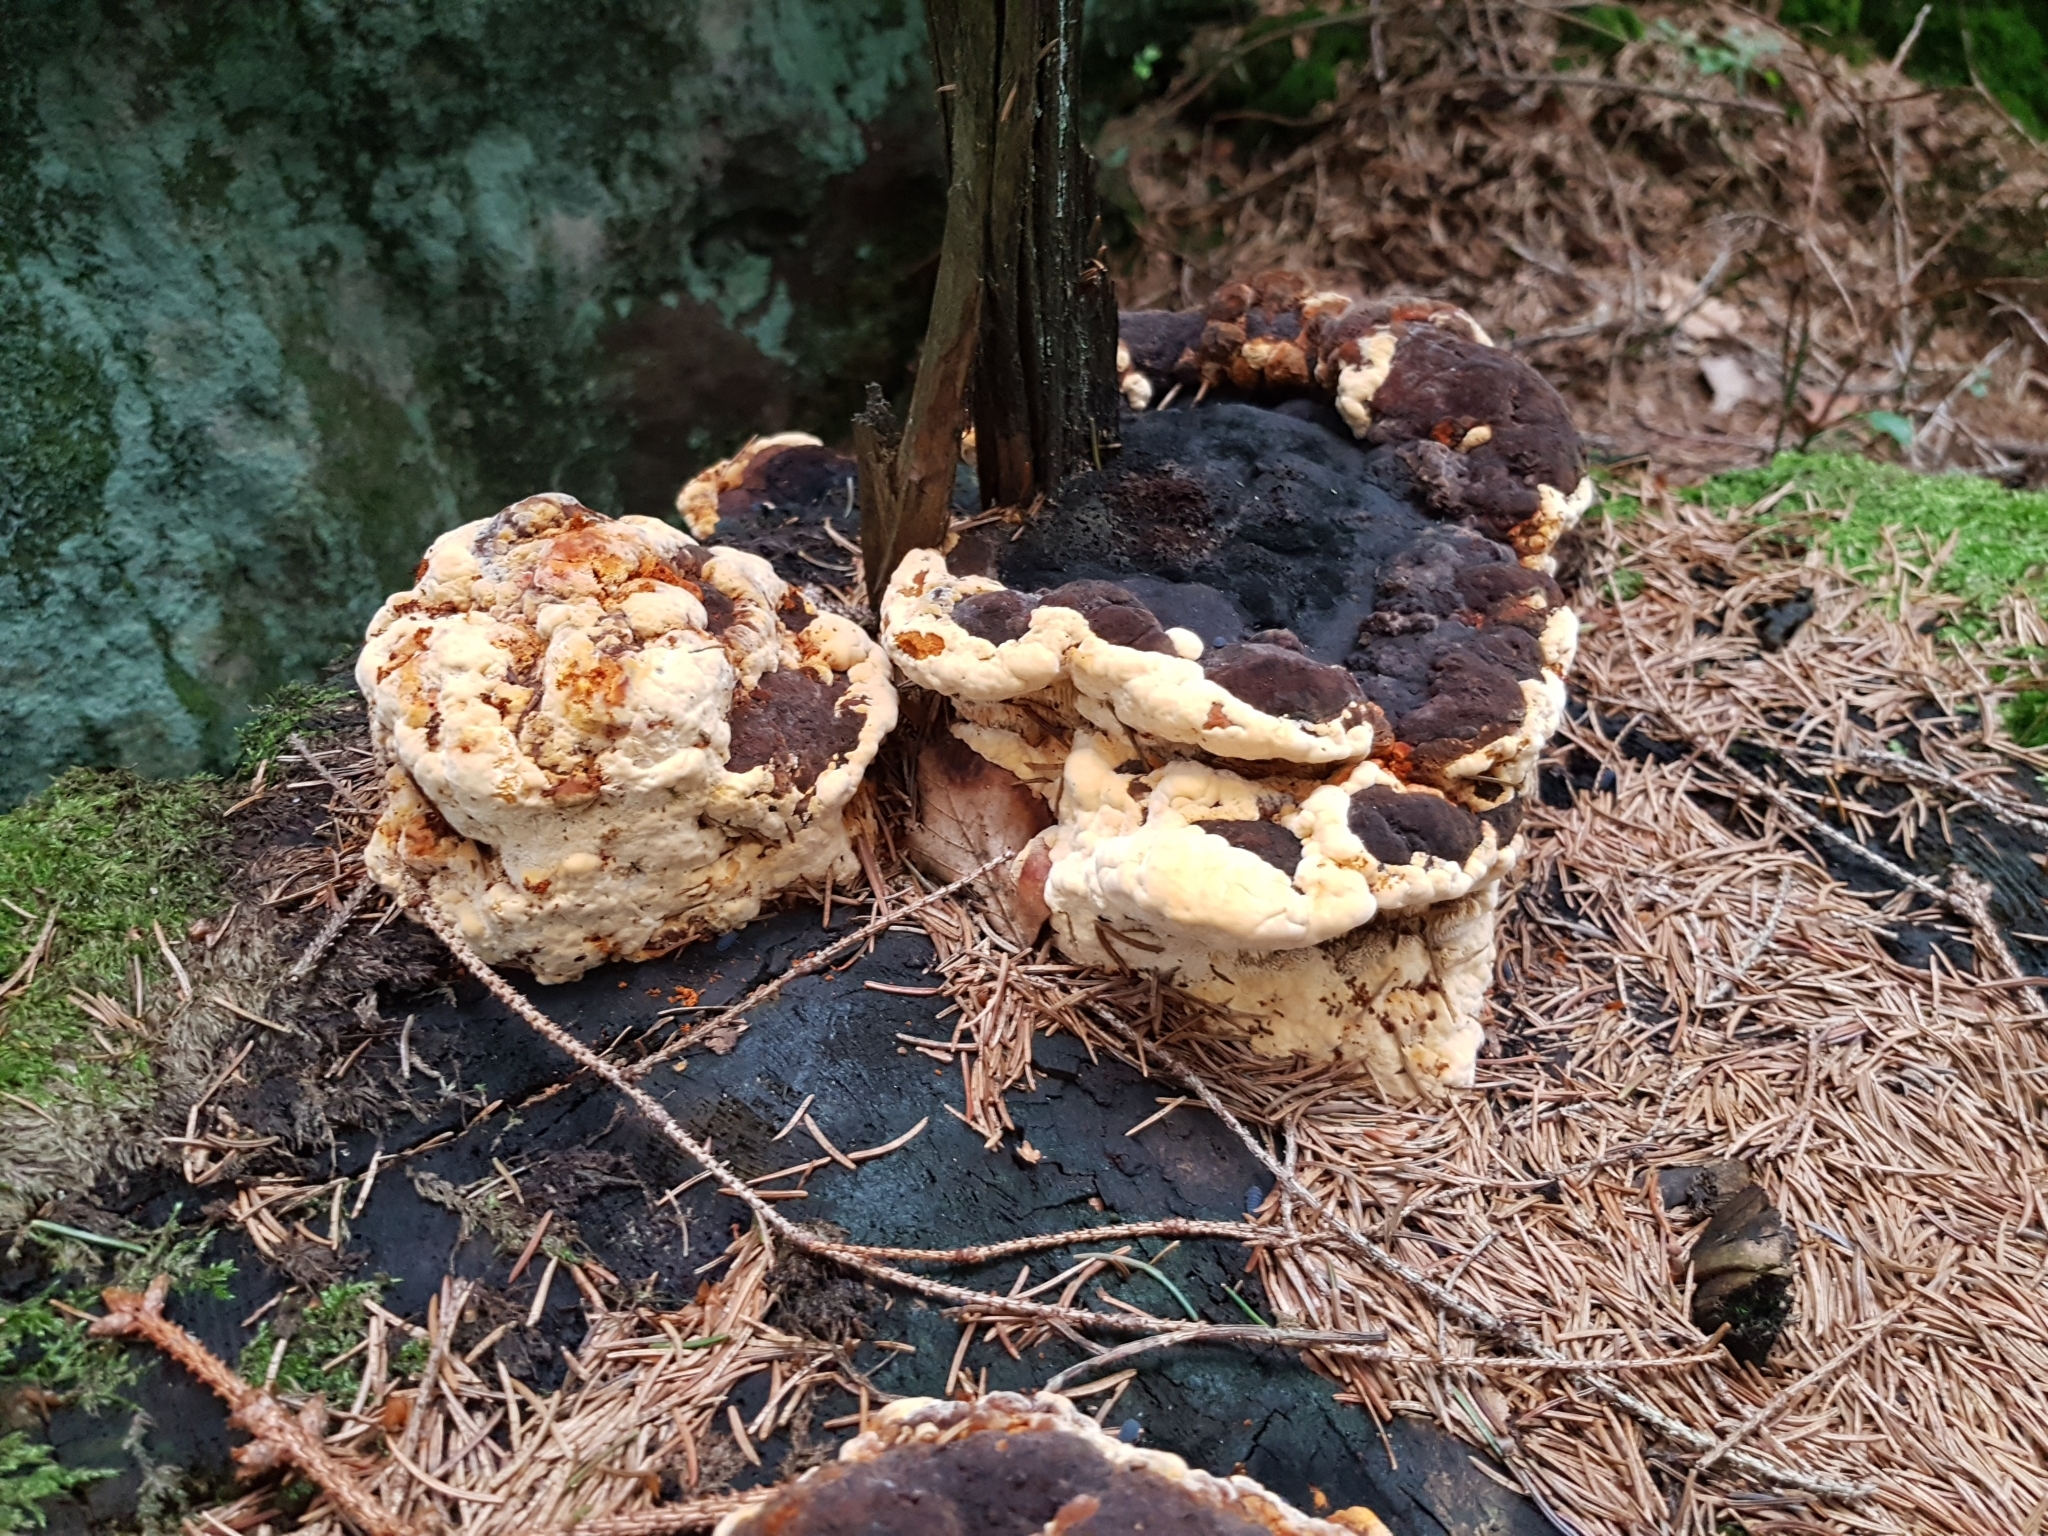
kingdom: Fungi
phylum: Basidiomycota
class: Agaricomycetes
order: Gloeophyllales
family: Gloeophyllaceae
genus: Gloeophyllum
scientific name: Gloeophyllum odoratum
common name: Anise mazegill
